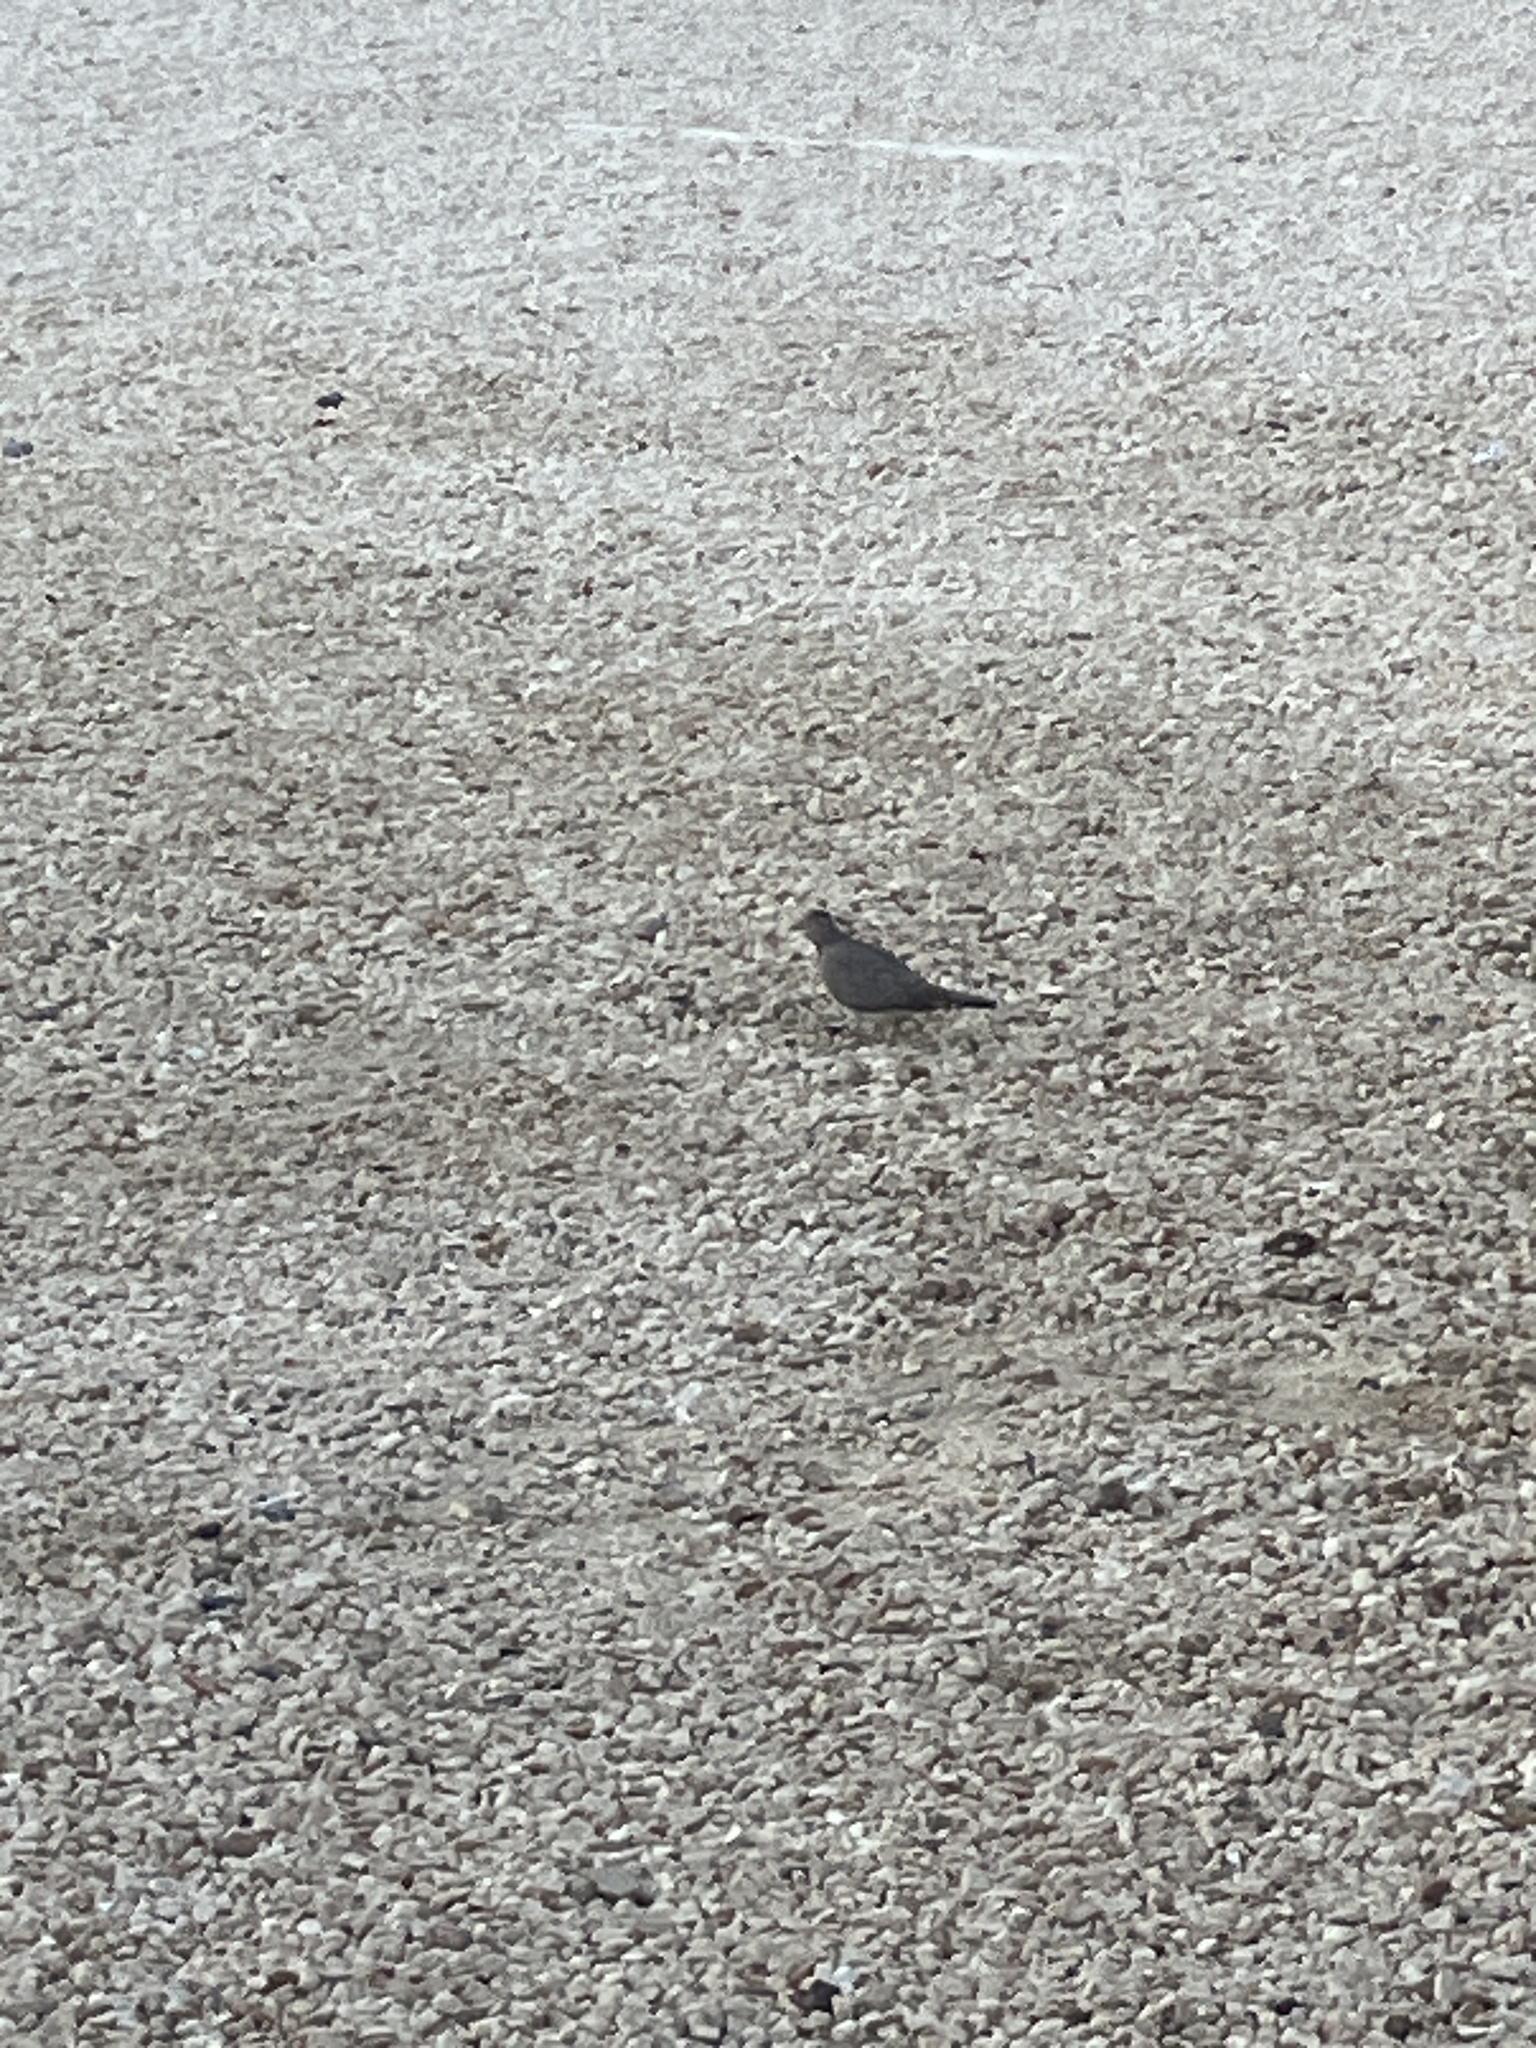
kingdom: Animalia
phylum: Chordata
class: Aves
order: Columbiformes
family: Columbidae
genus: Spilopelia
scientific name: Spilopelia senegalensis
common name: Laughing dove
